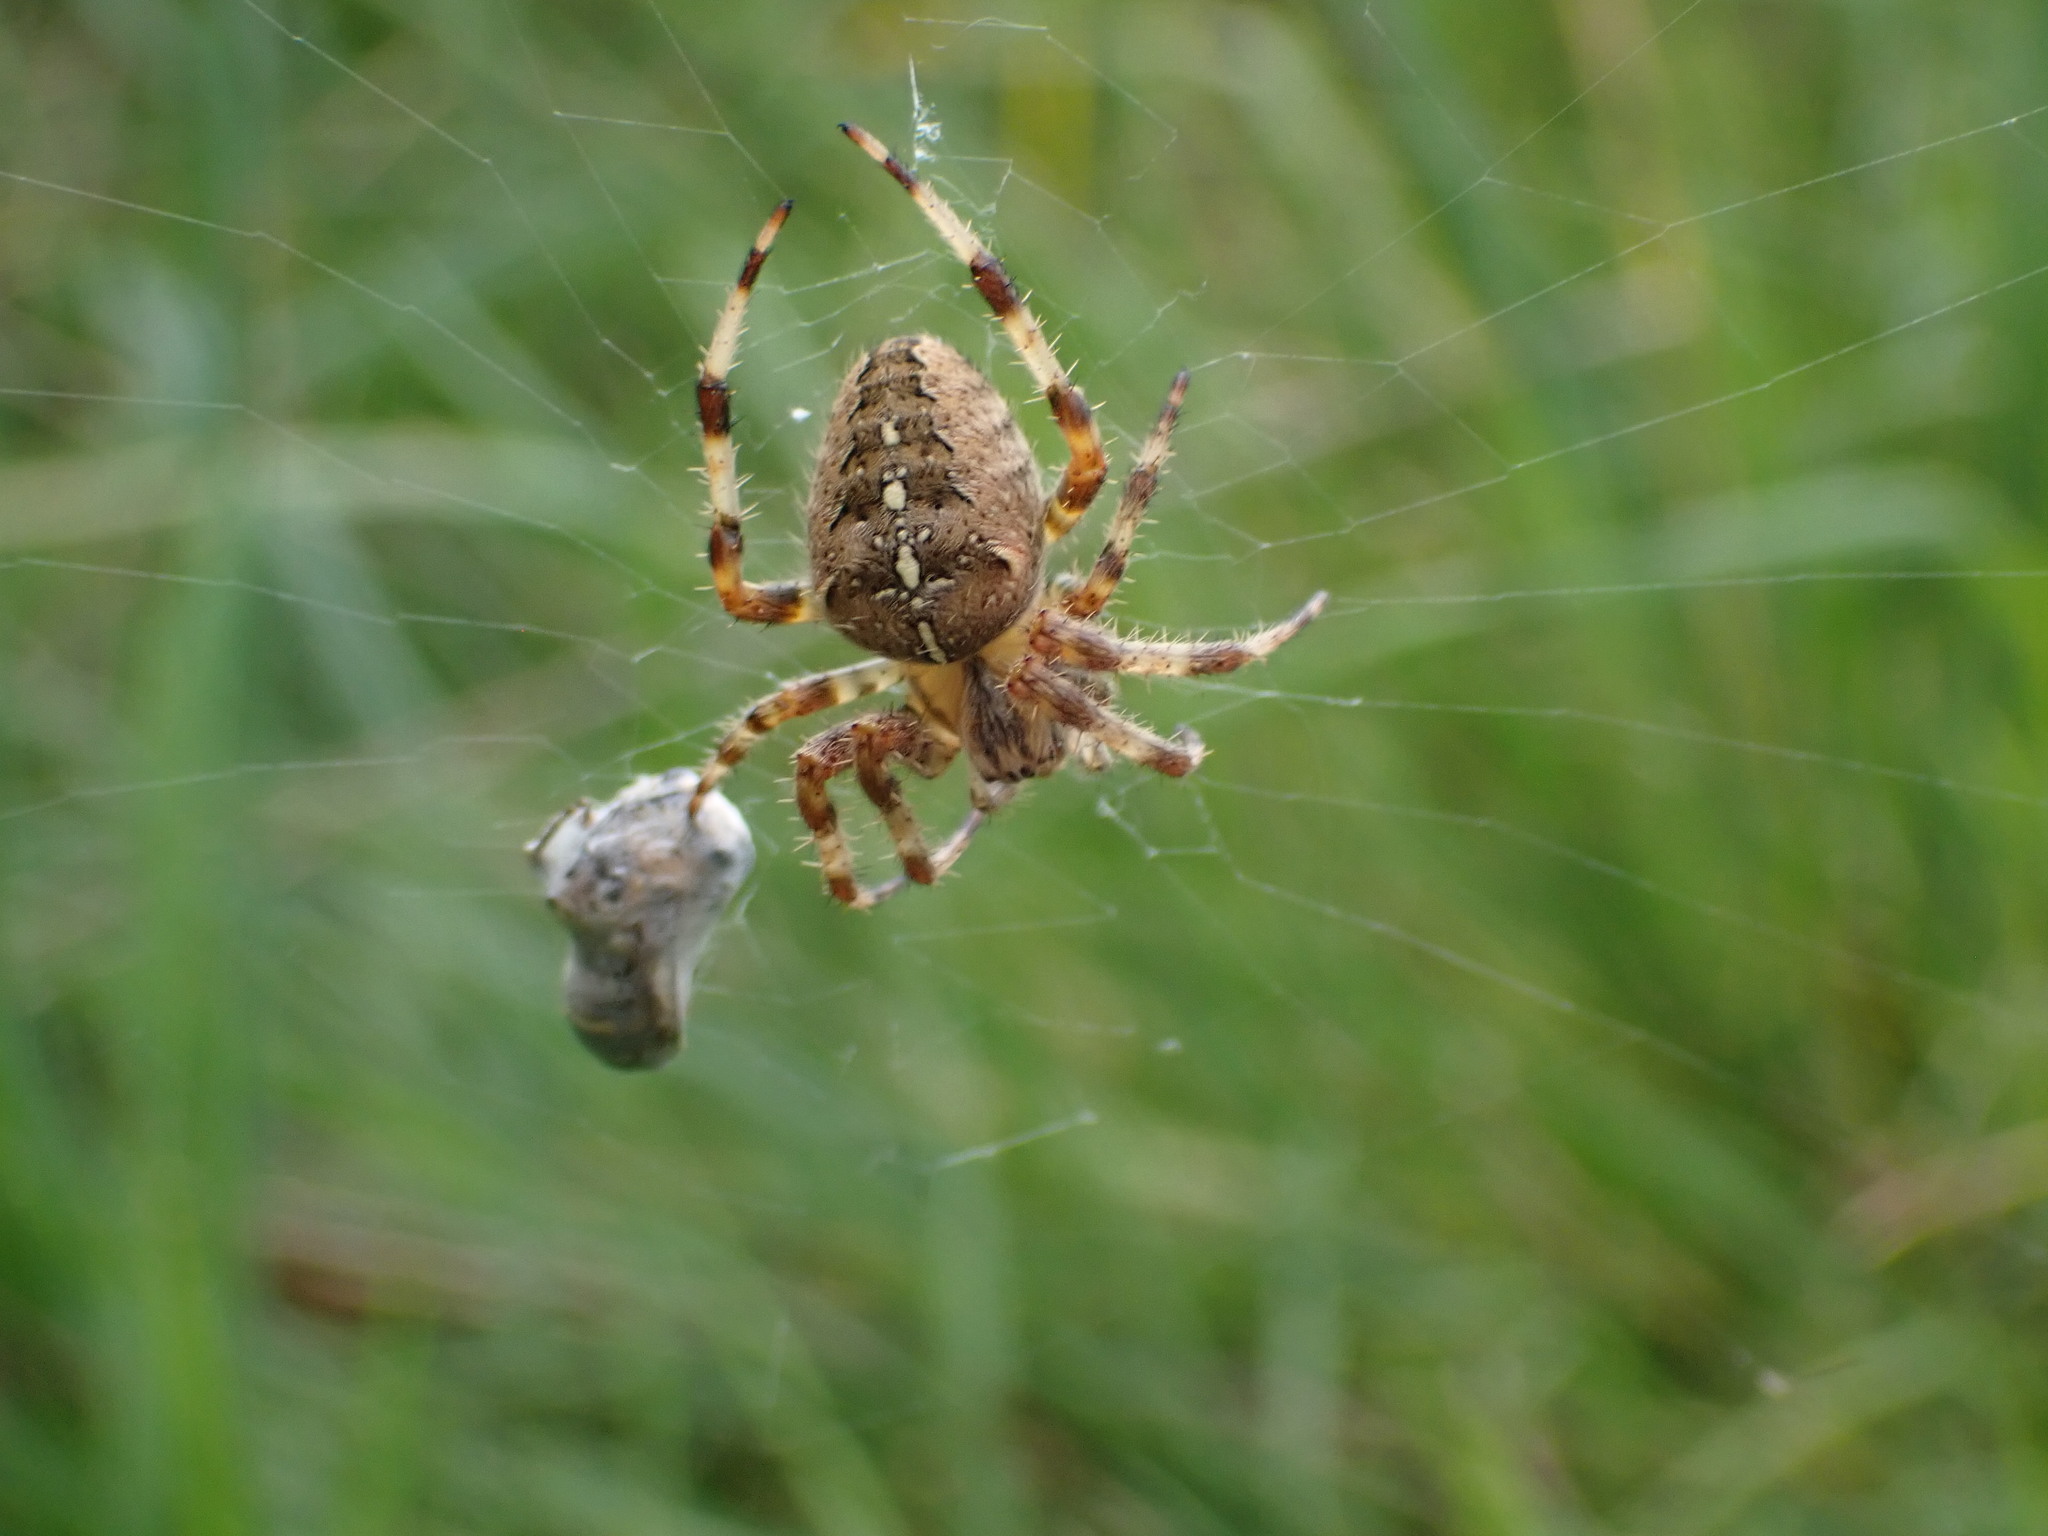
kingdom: Animalia
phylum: Arthropoda
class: Arachnida
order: Araneae
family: Araneidae
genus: Araneus
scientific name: Araneus diadematus
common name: Cross orbweaver
